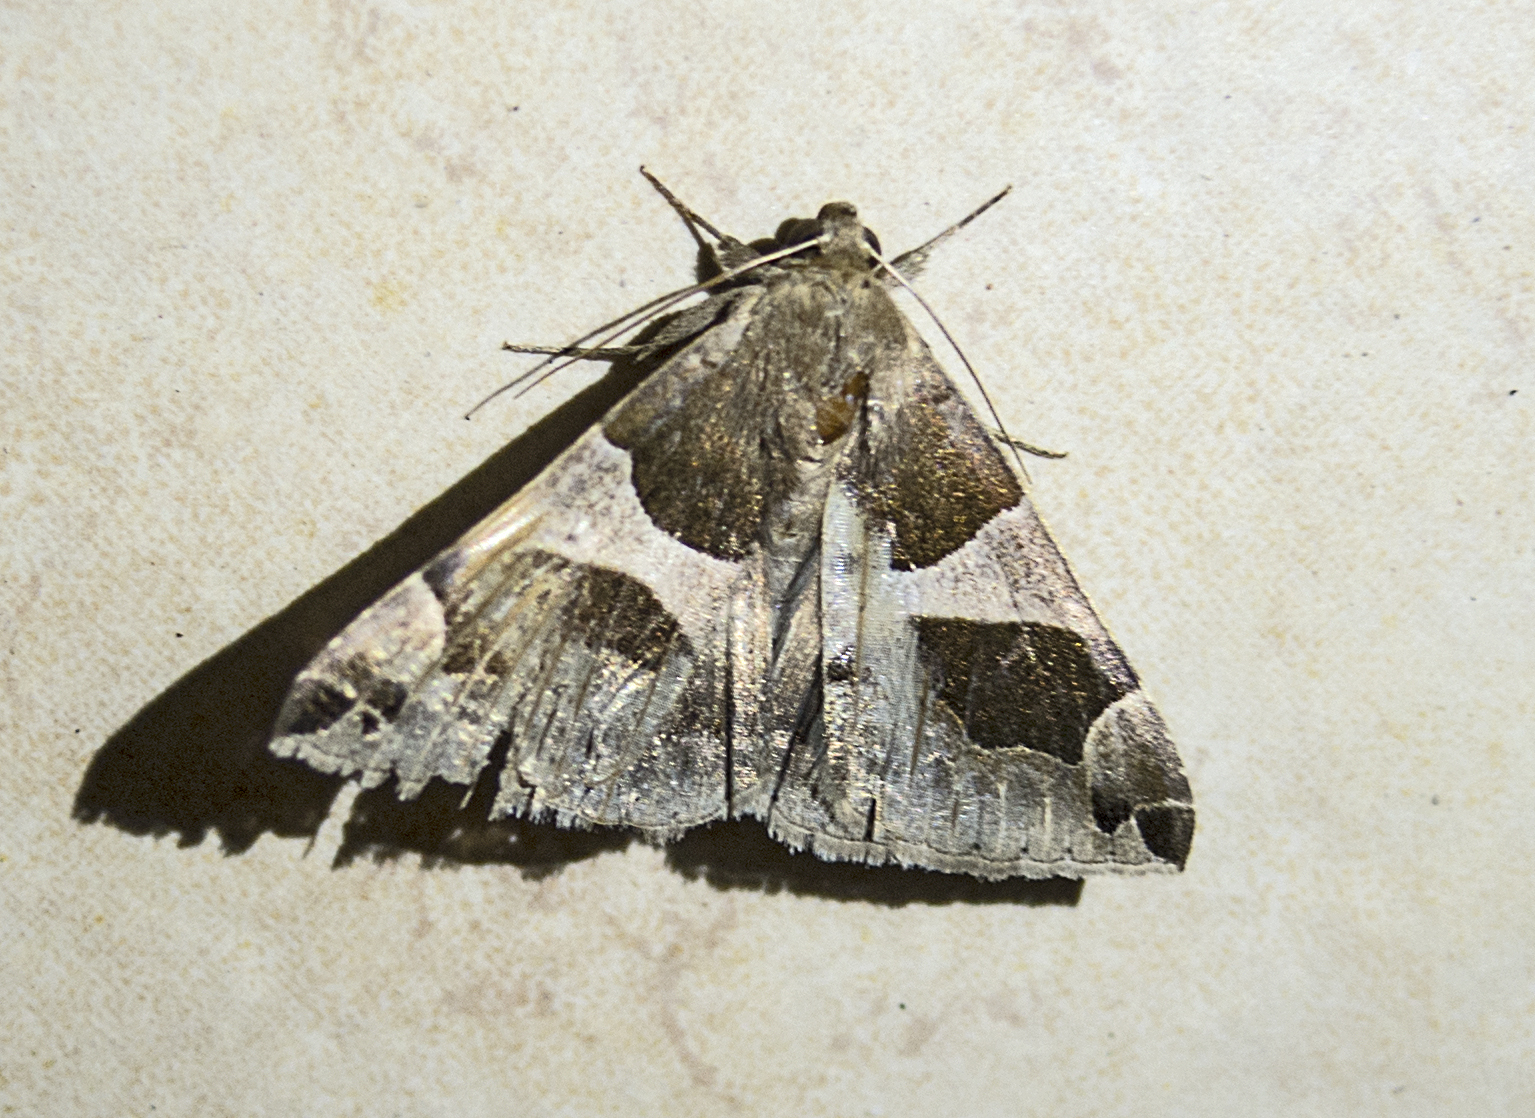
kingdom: Animalia
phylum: Arthropoda
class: Insecta
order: Lepidoptera
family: Erebidae
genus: Dysgonia
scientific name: Dysgonia algira
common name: Passenger
